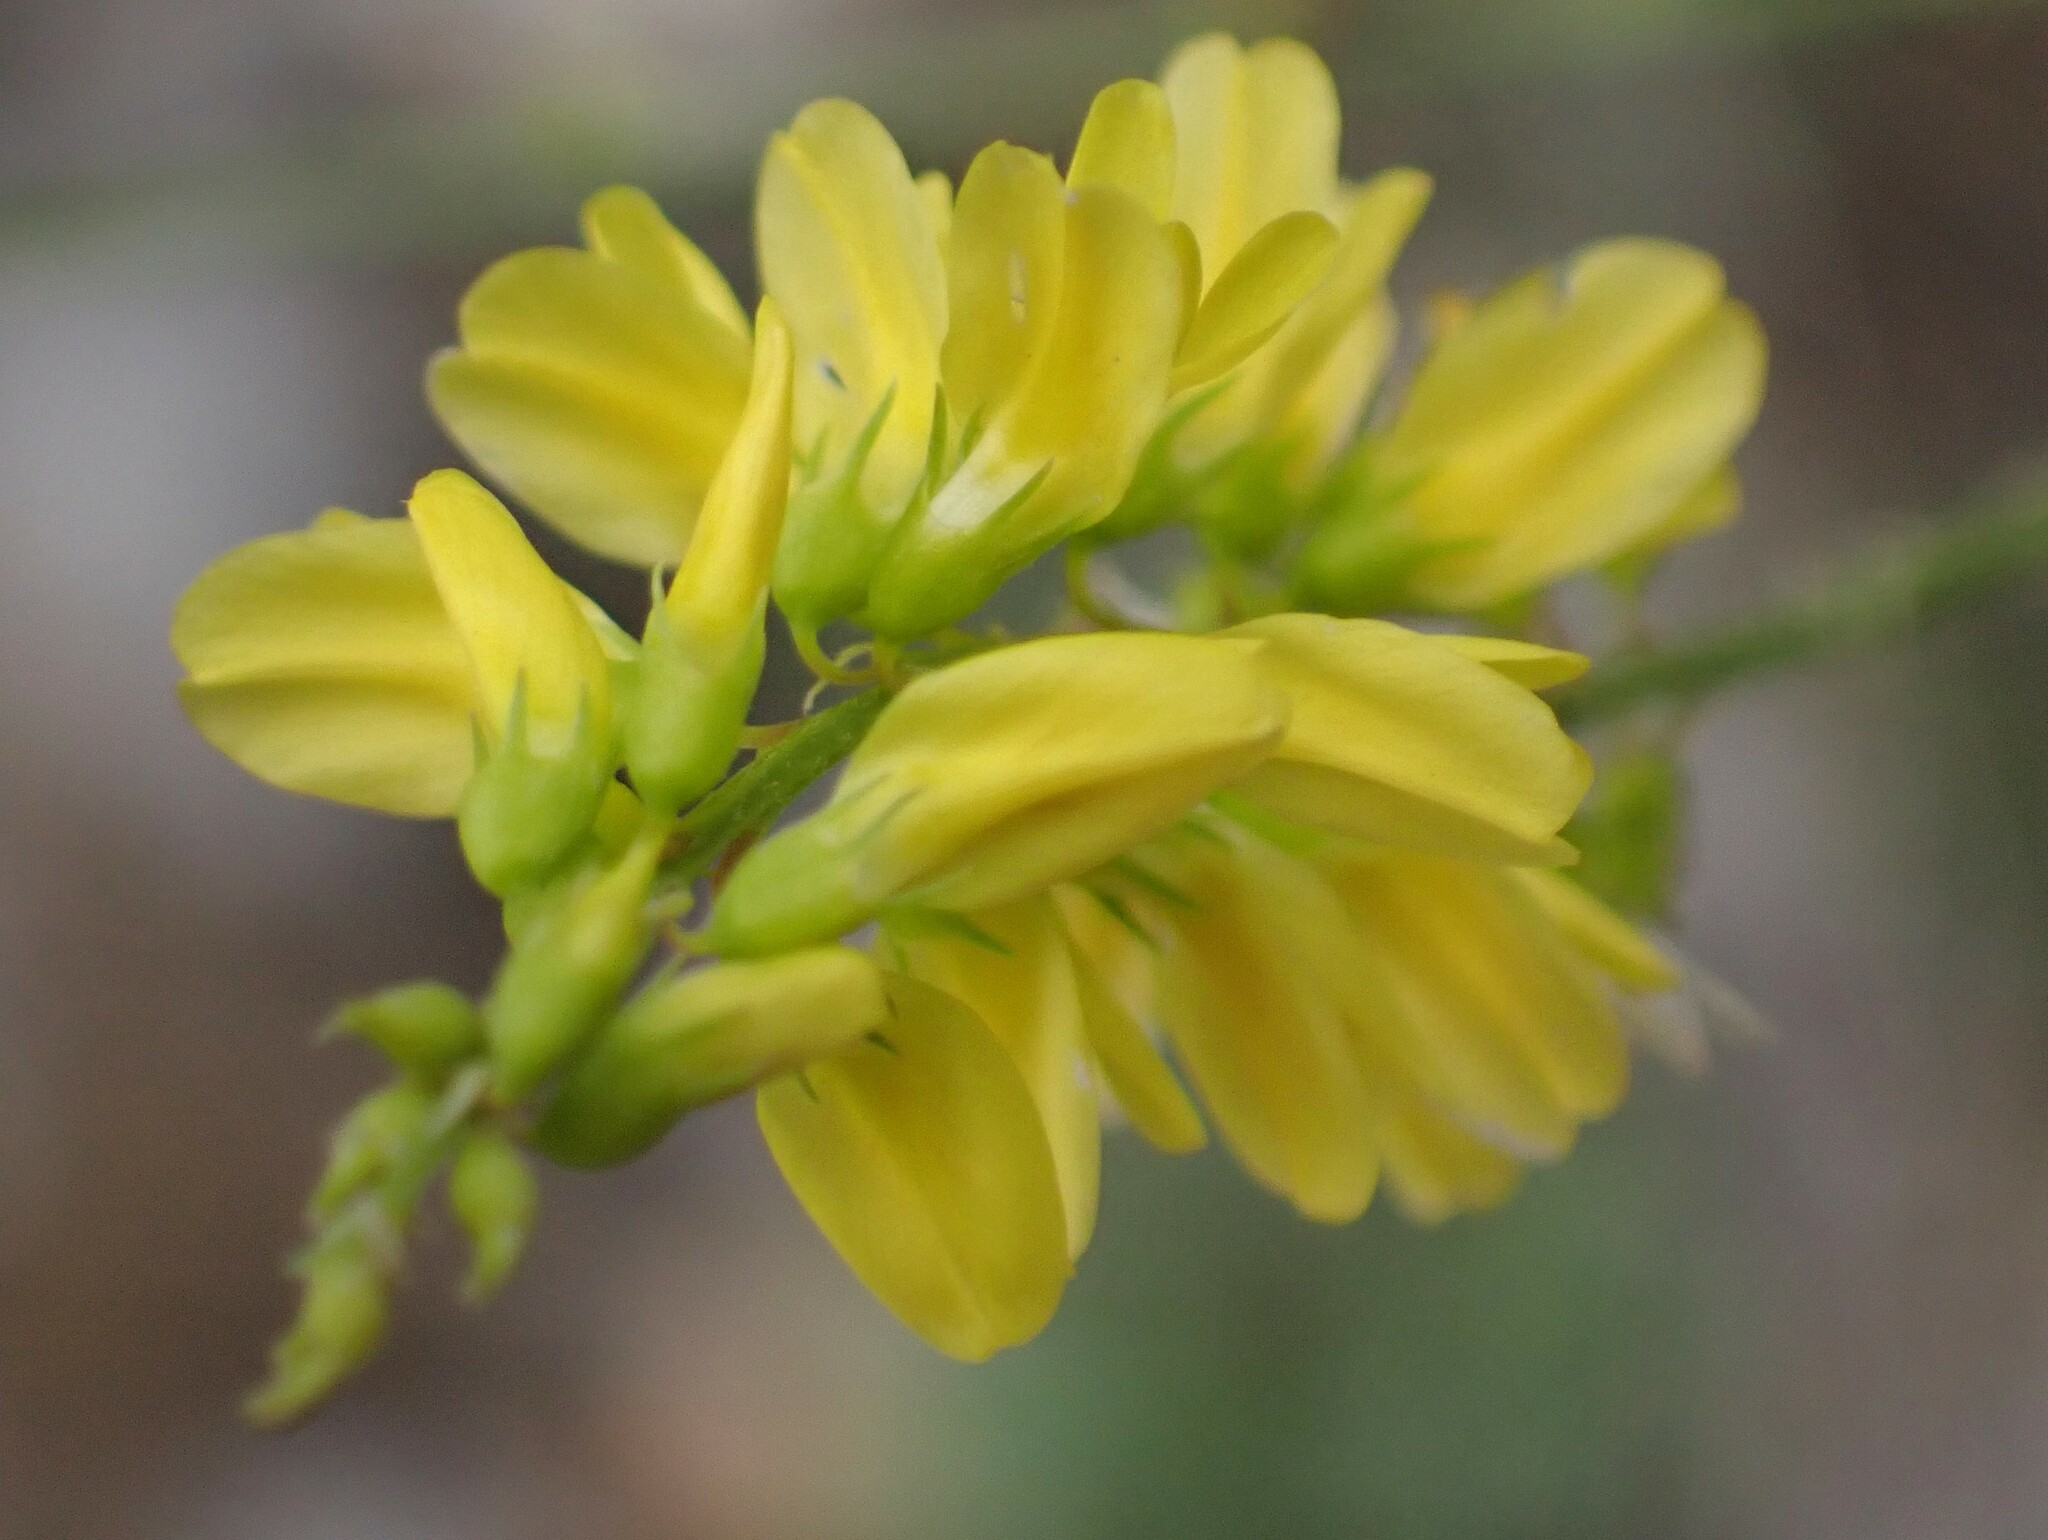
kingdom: Plantae
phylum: Tracheophyta
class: Magnoliopsida
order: Fabales
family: Fabaceae
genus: Melilotus
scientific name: Melilotus officinalis
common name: Sweetclover
